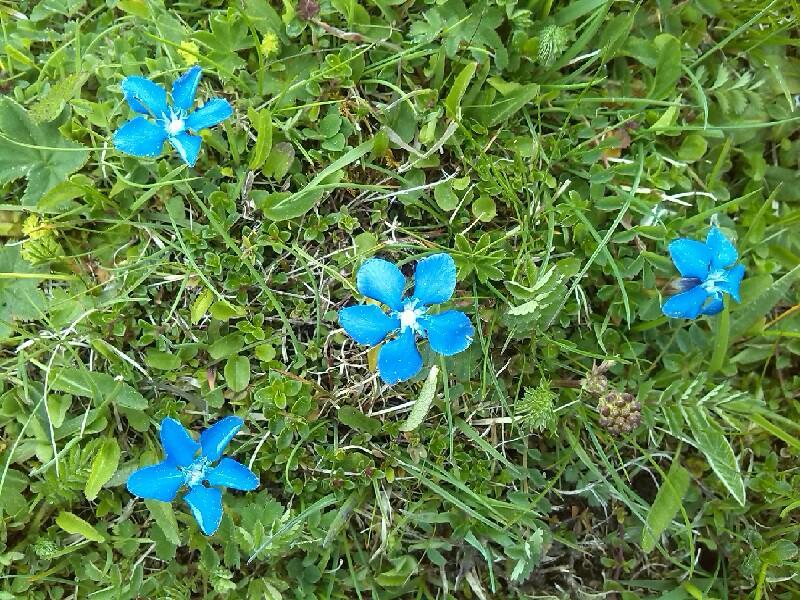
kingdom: Plantae
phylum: Tracheophyta
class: Magnoliopsida
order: Gentianales
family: Gentianaceae
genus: Gentiana
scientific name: Gentiana
